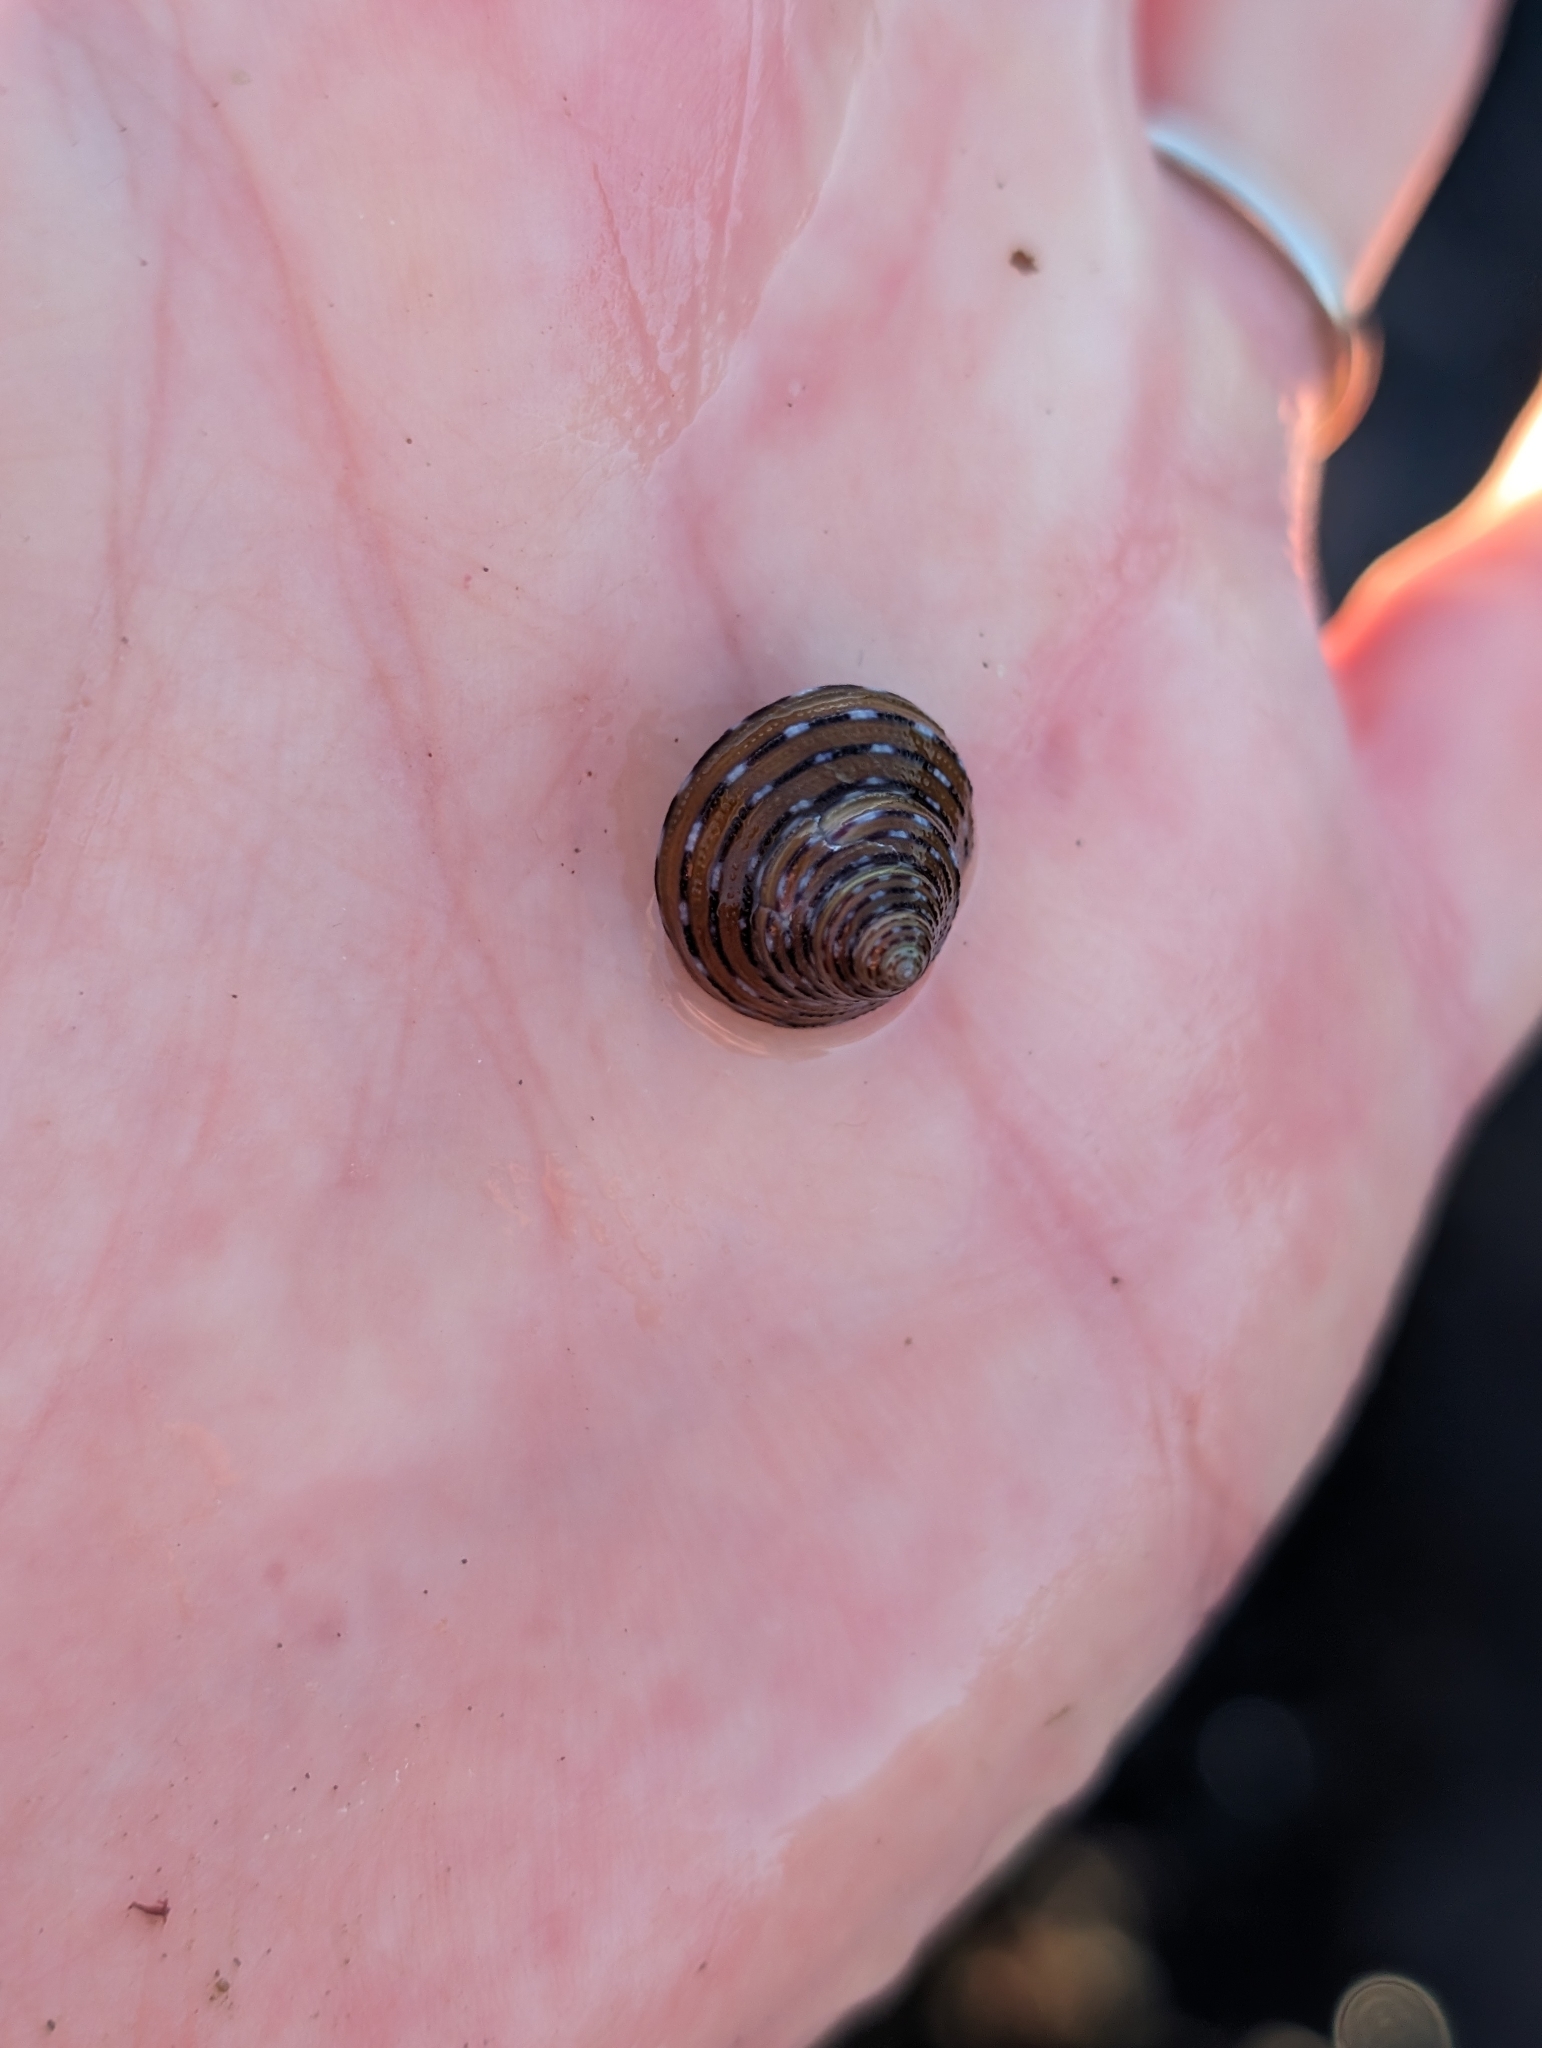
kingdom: Animalia
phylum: Mollusca
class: Gastropoda
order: Trochida
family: Calliostomatidae
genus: Calliostoma
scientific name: Calliostoma tricolor
